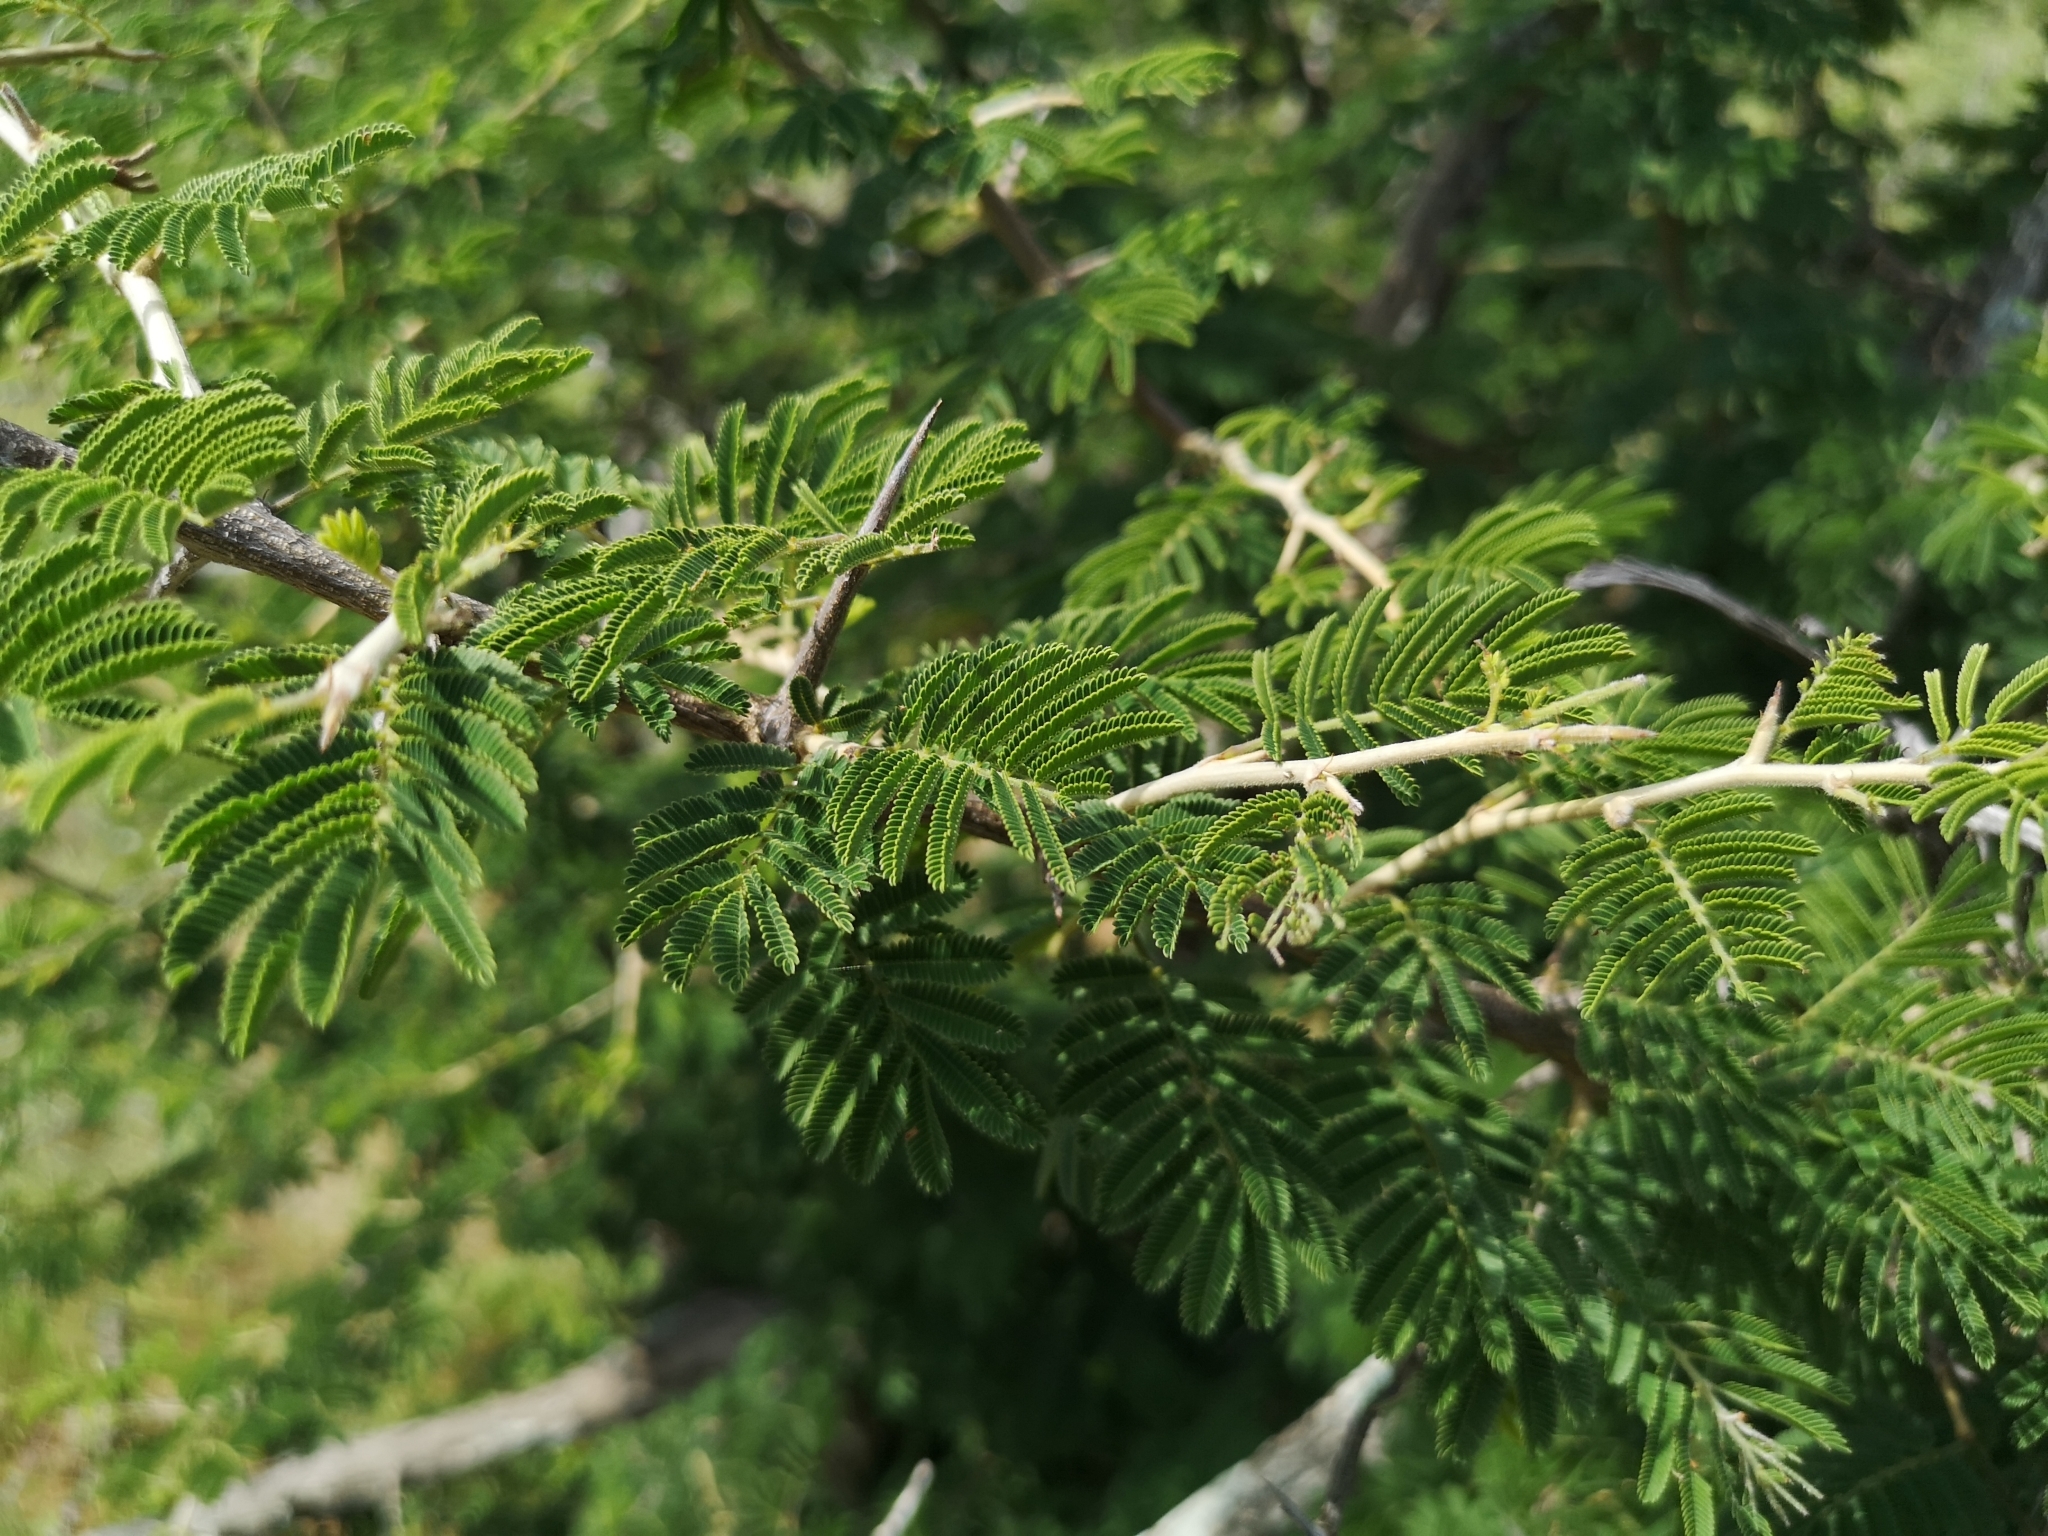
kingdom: Plantae
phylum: Tracheophyta
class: Magnoliopsida
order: Fabales
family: Fabaceae
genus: Dichrostachys
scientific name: Dichrostachys cinerea
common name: Sicklebush
